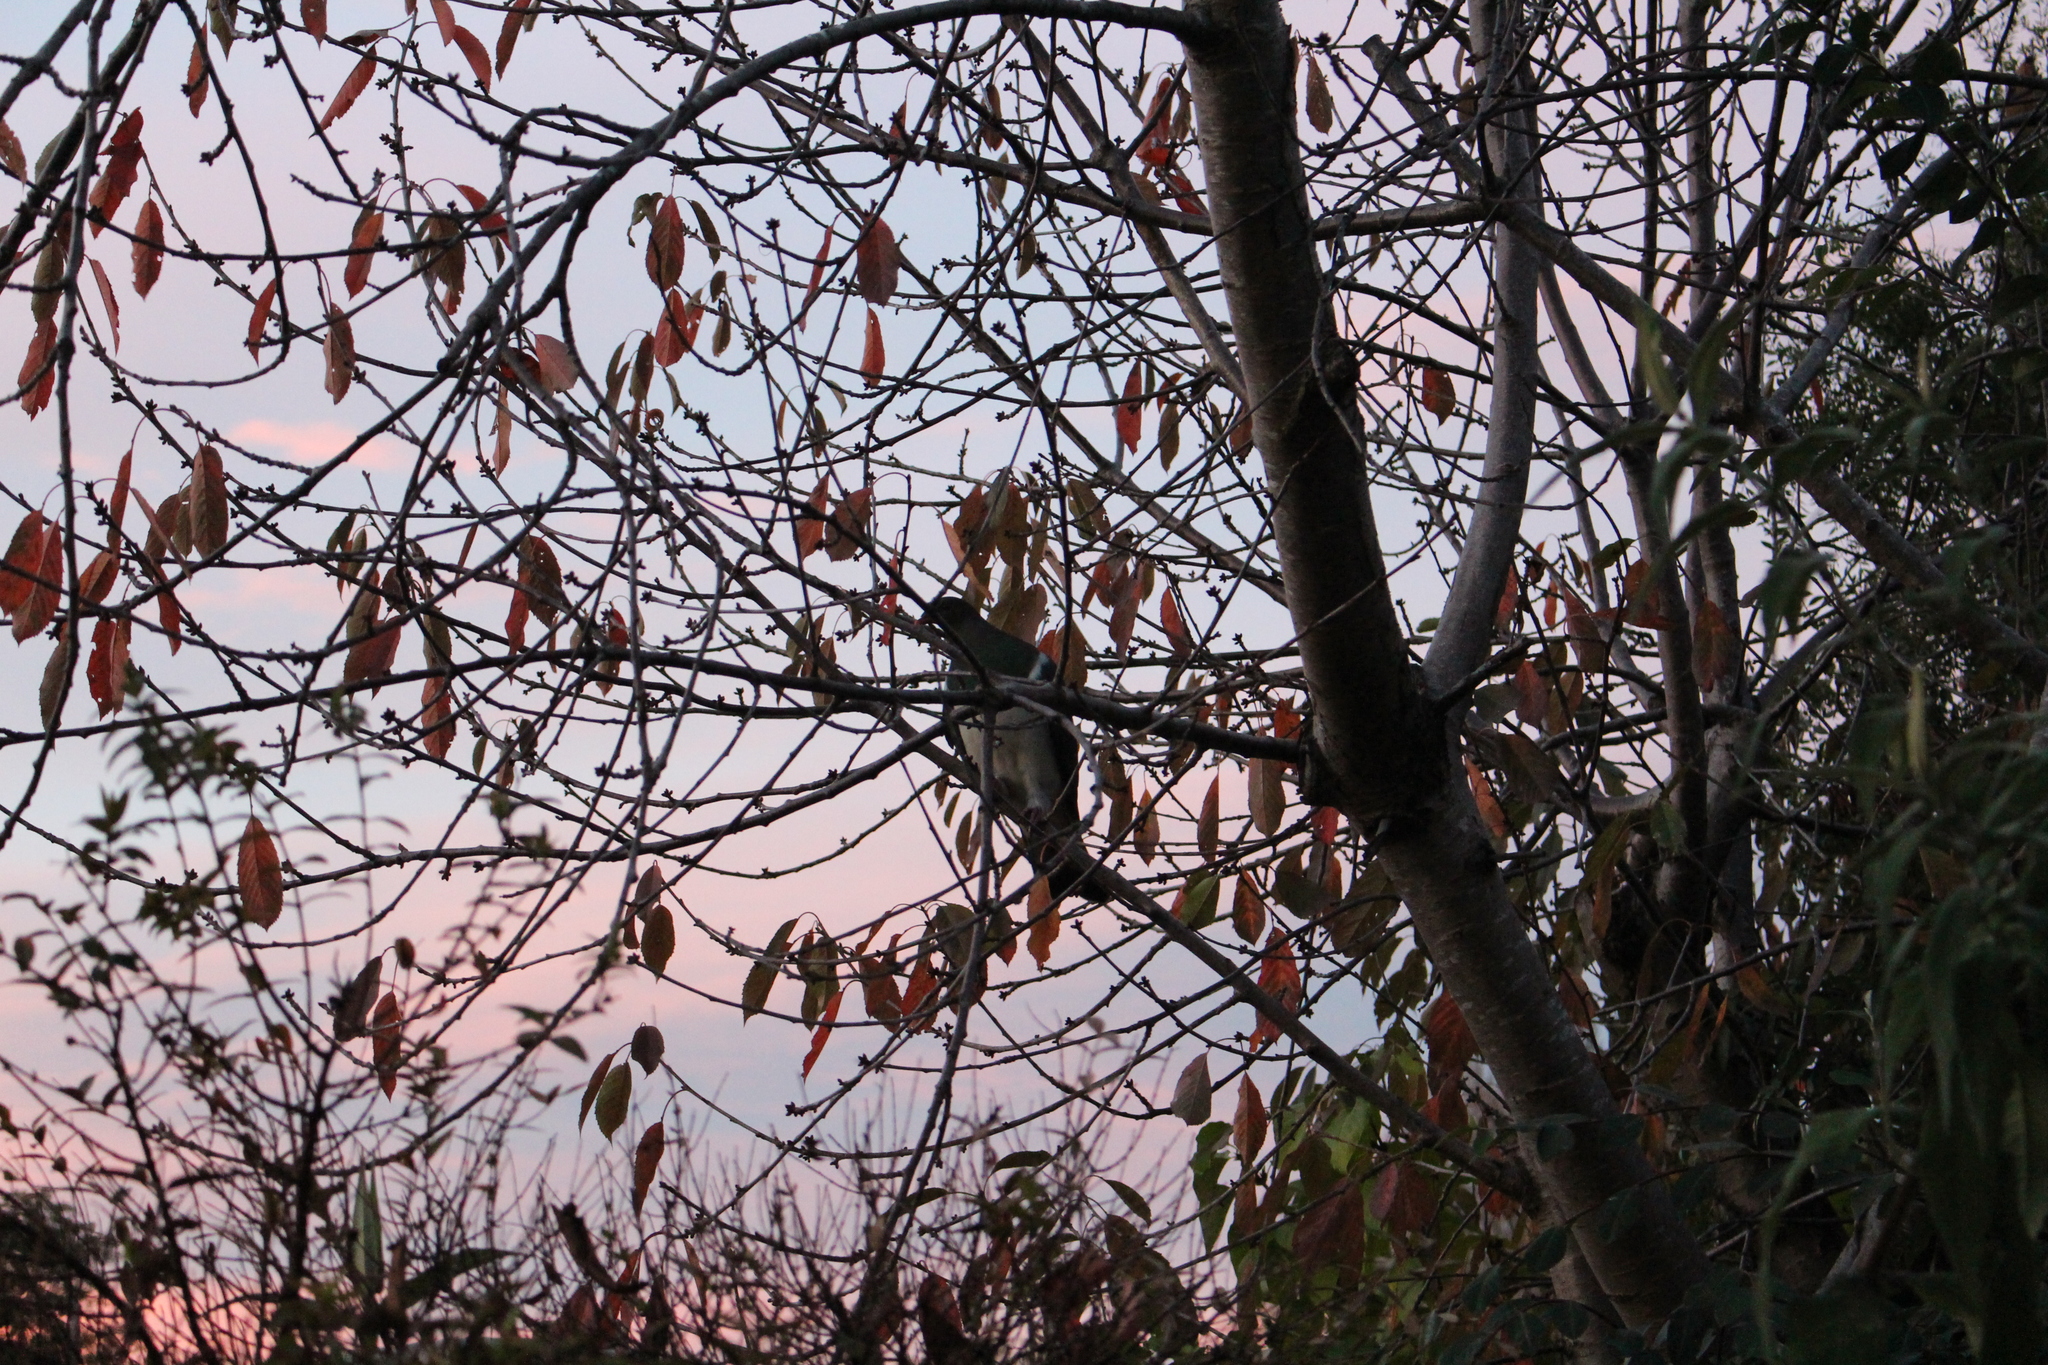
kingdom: Animalia
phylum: Chordata
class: Aves
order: Columbiformes
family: Columbidae
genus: Hemiphaga
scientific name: Hemiphaga novaeseelandiae
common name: New zealand pigeon
